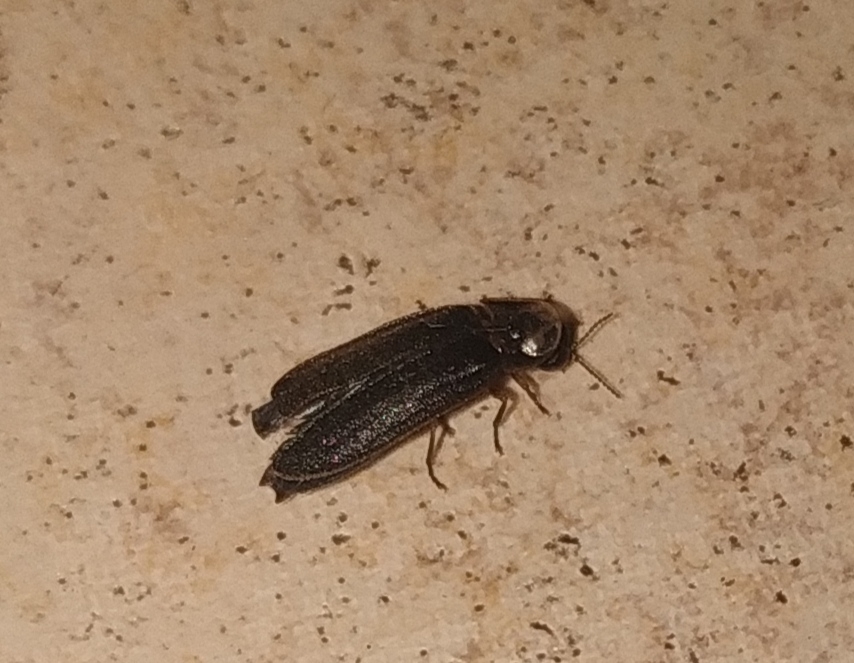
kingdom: Animalia
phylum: Arthropoda
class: Insecta
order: Coleoptera
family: Lampyridae
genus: Lamprohiza
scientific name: Lamprohiza splendidula
